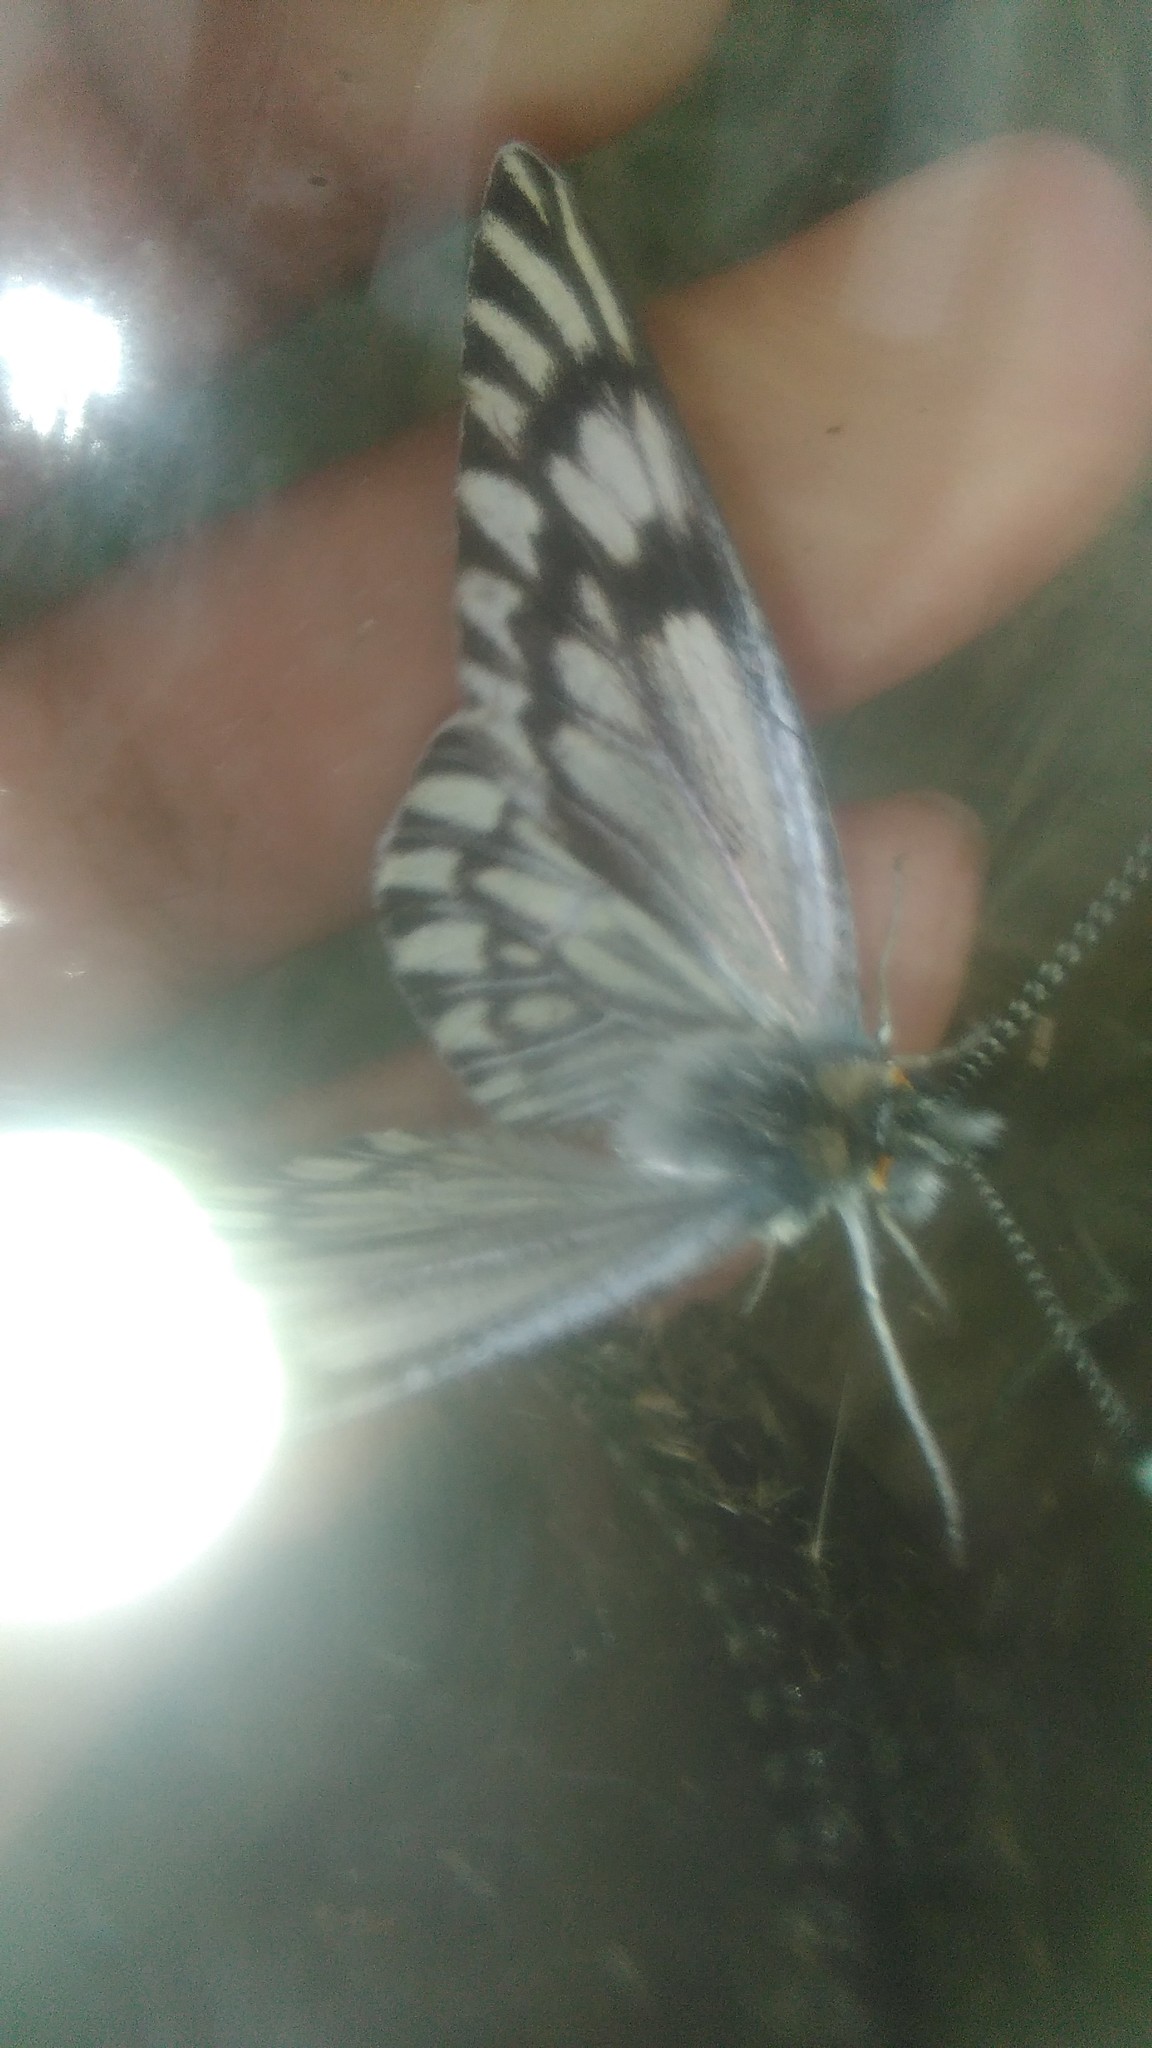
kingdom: Animalia
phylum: Arthropoda
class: Insecta
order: Lepidoptera
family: Pieridae
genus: Tatochila
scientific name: Tatochila mercedis
